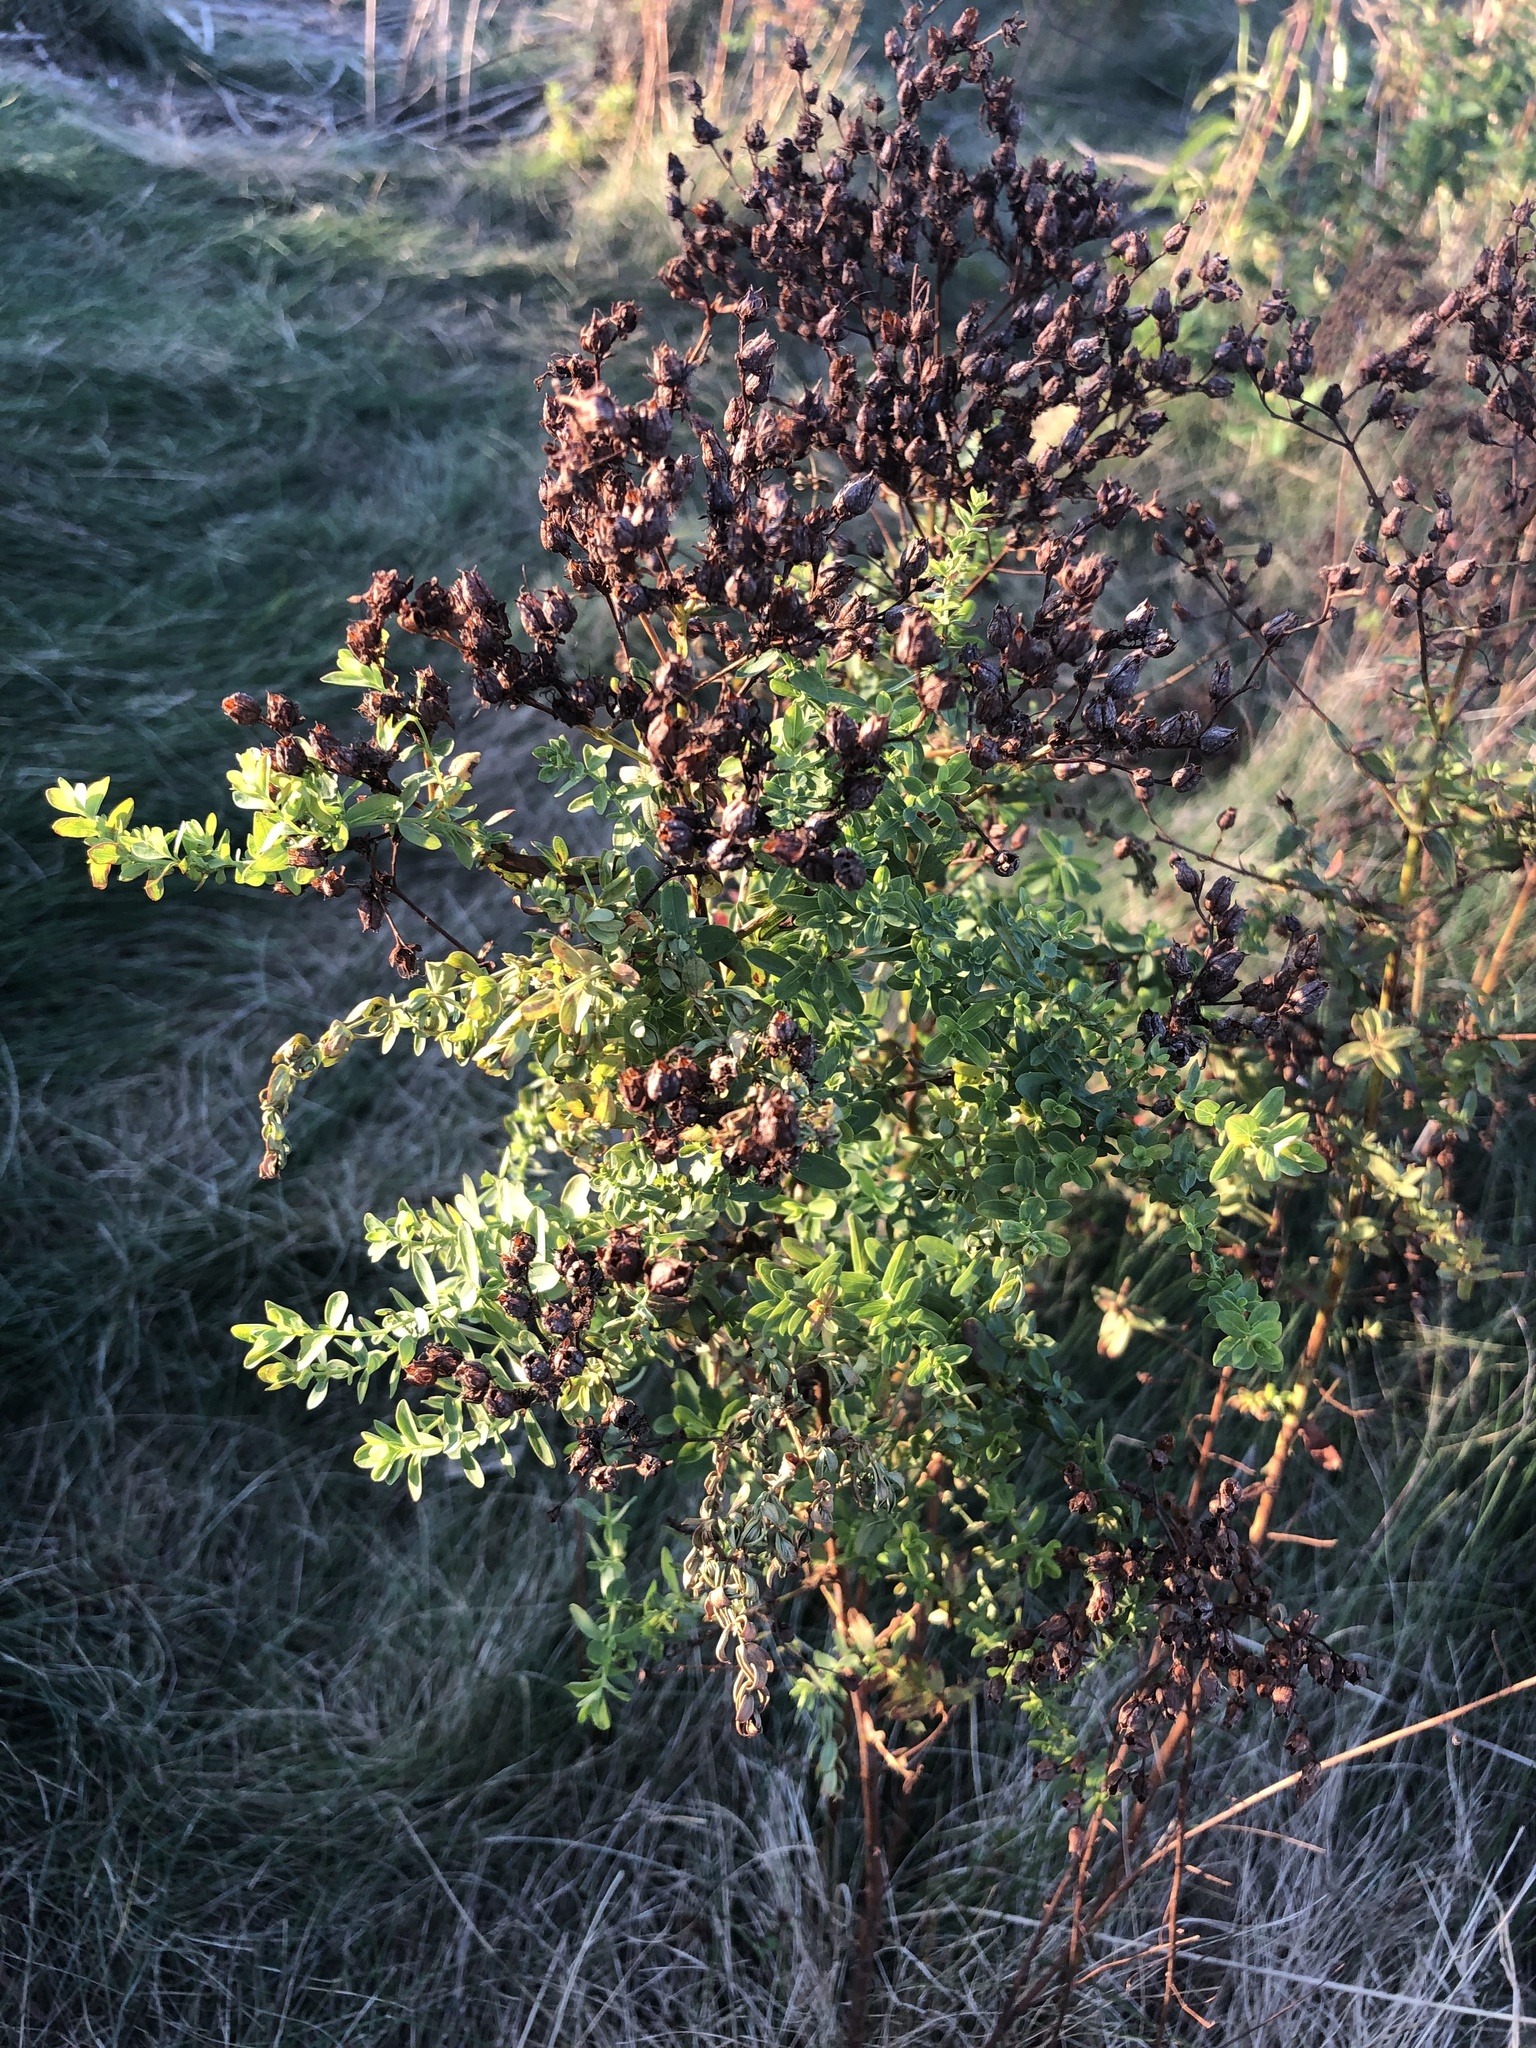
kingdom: Plantae
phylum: Tracheophyta
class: Magnoliopsida
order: Malpighiales
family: Hypericaceae
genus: Hypericum
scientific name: Hypericum perforatum
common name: Common st. johnswort
